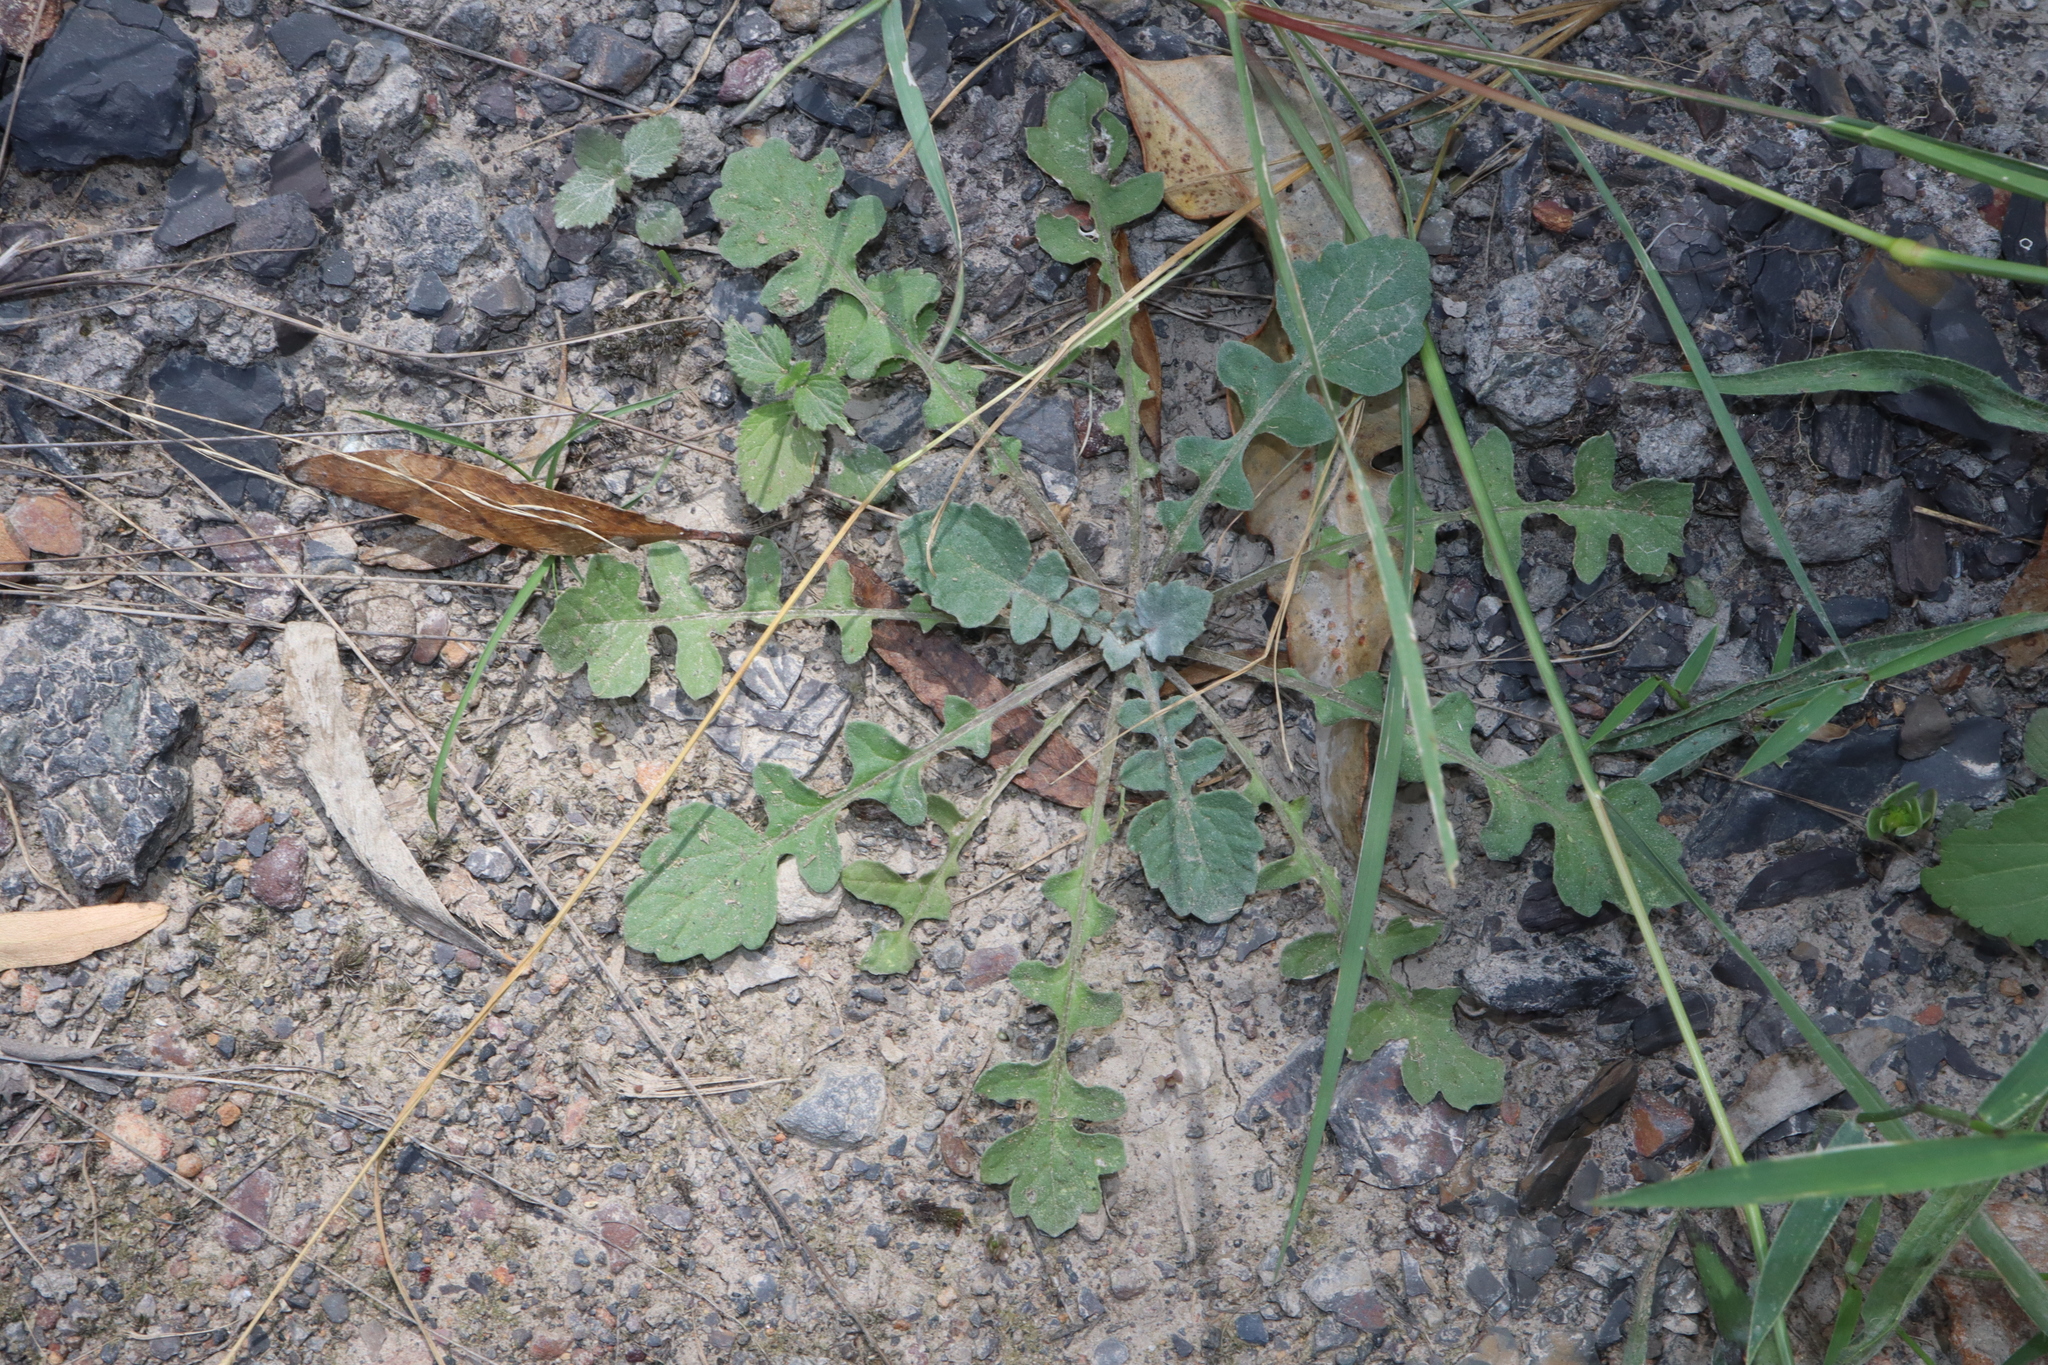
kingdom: Plantae
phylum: Tracheophyta
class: Magnoliopsida
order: Asterales
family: Asteraceae
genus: Arctotheca
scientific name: Arctotheca calendula
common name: Capeweed
